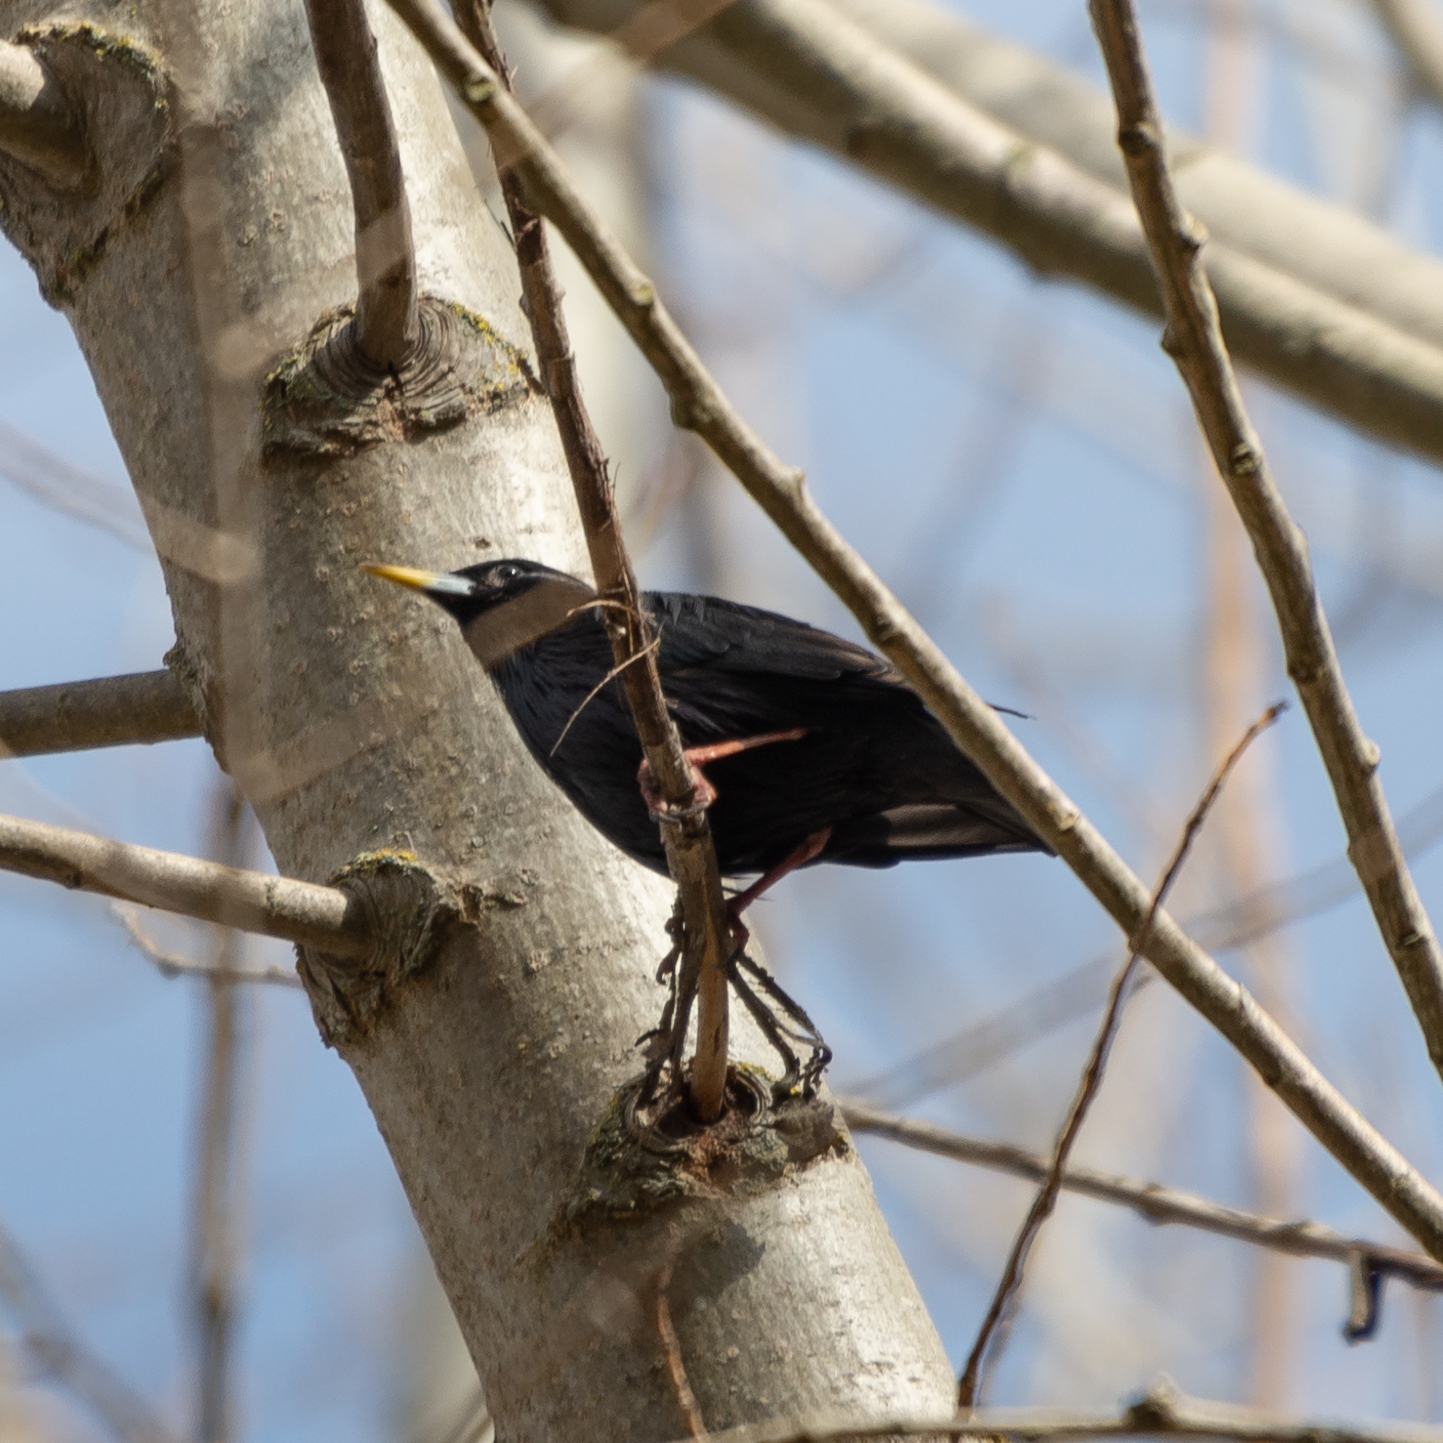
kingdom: Animalia
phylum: Chordata
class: Aves
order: Passeriformes
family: Sturnidae
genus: Sturnus
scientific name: Sturnus unicolor
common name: Spotless starling
